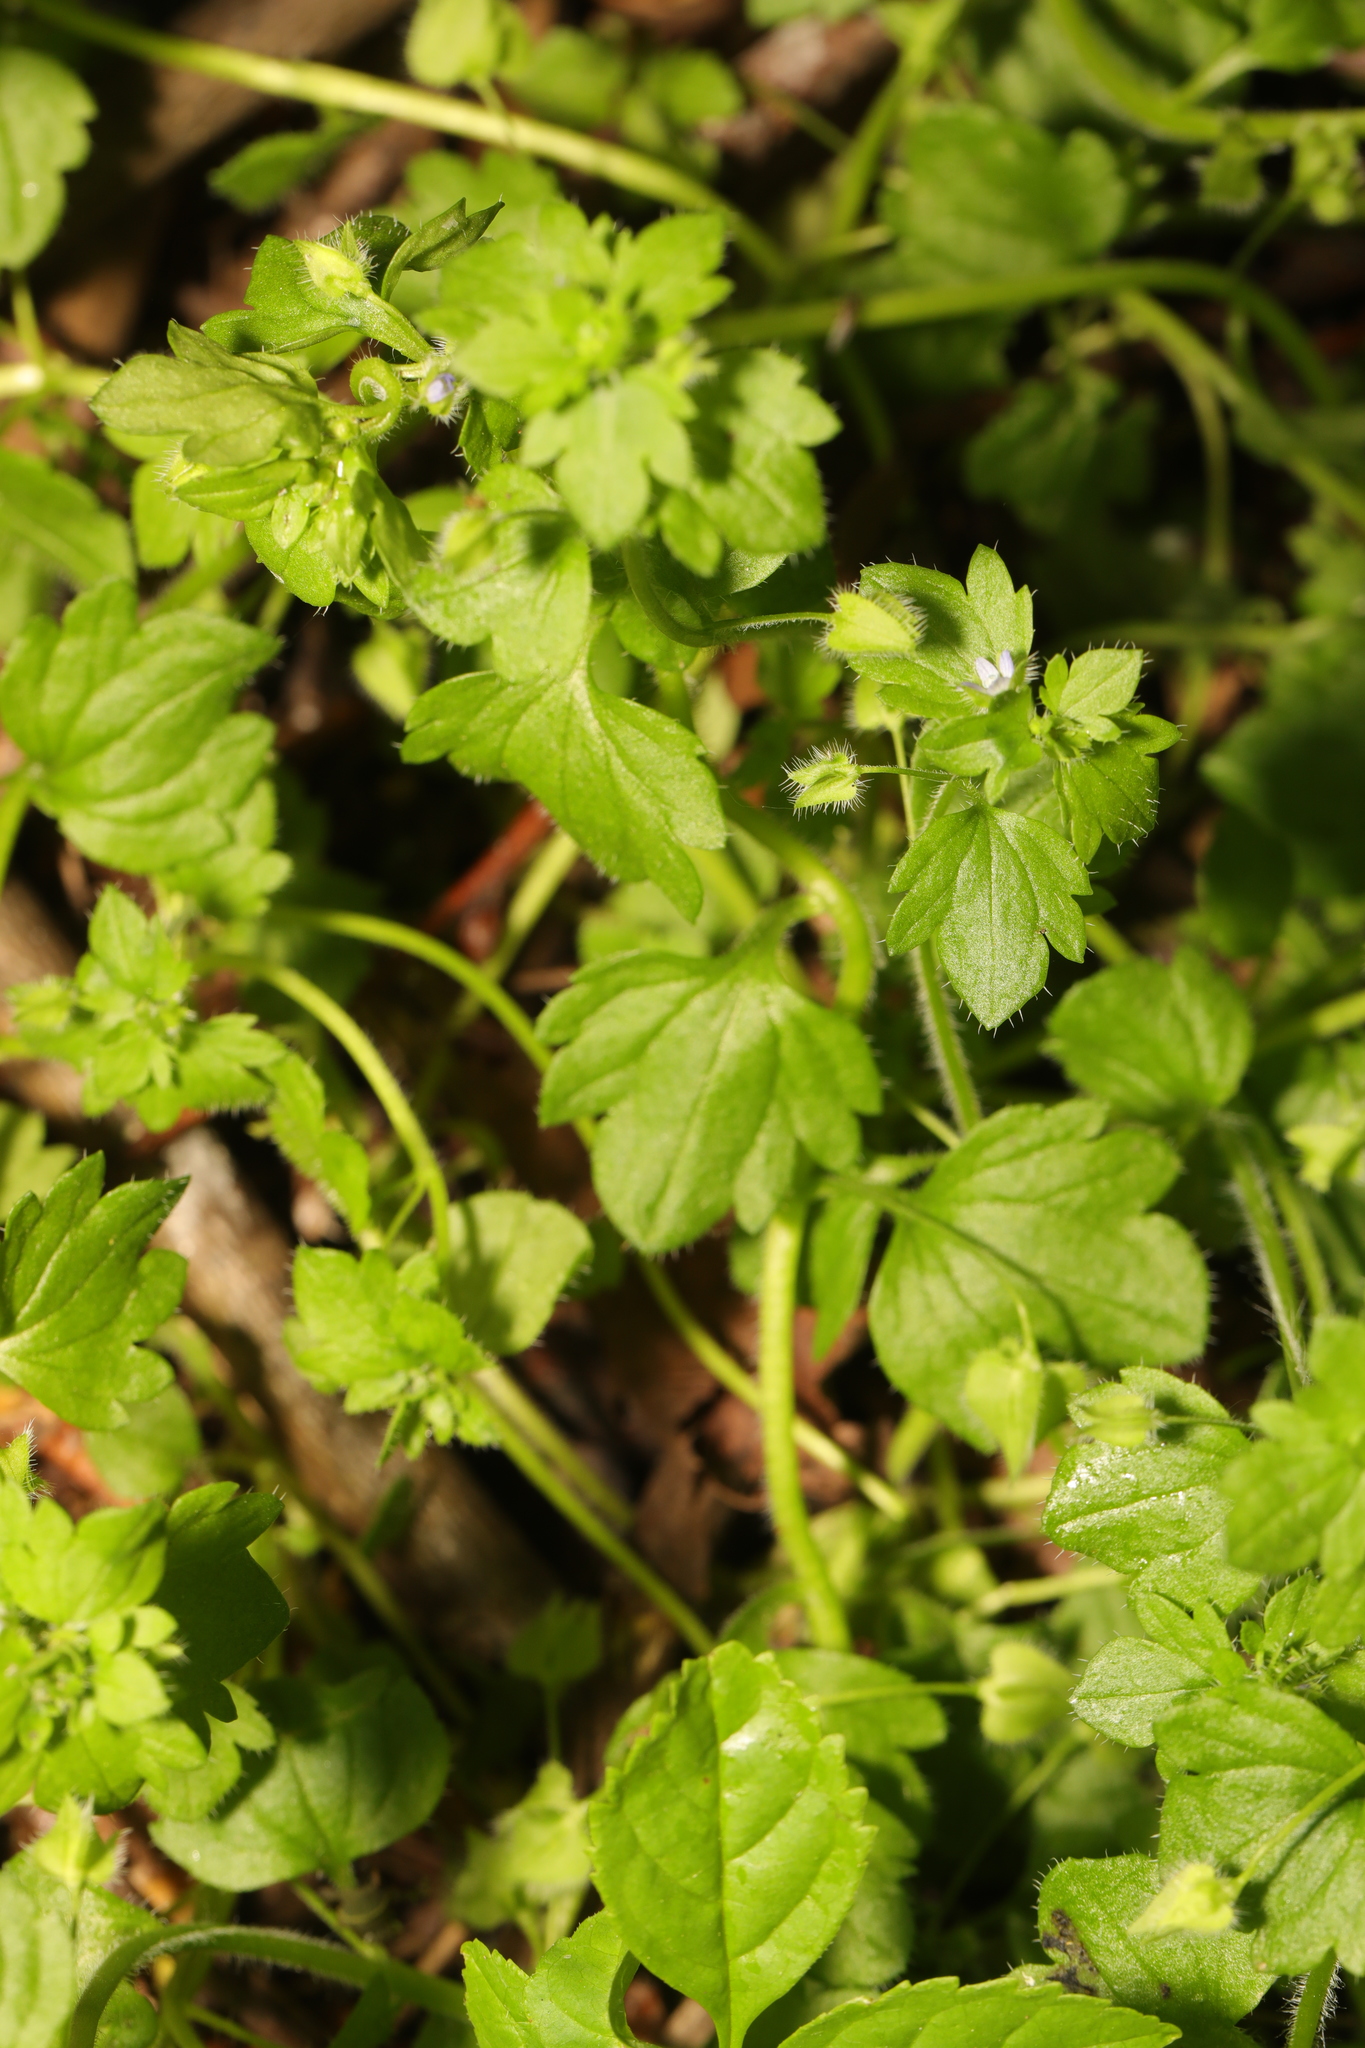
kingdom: Plantae
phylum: Tracheophyta
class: Magnoliopsida
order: Lamiales
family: Plantaginaceae
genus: Veronica
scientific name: Veronica sublobata
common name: False ivy-leaved speedwell
